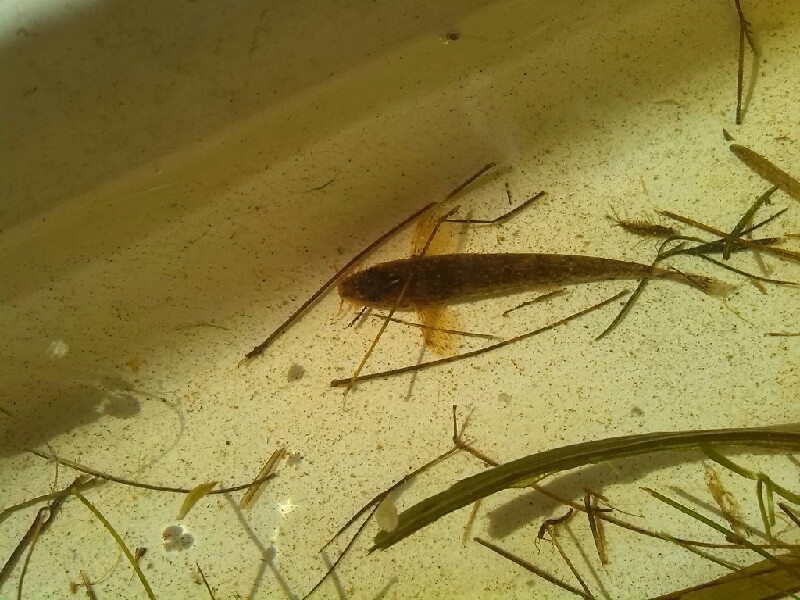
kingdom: Animalia
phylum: Chordata
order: Cypriniformes
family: Nemacheilidae
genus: Barbatula
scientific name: Barbatula barbatula
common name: Stone loach
